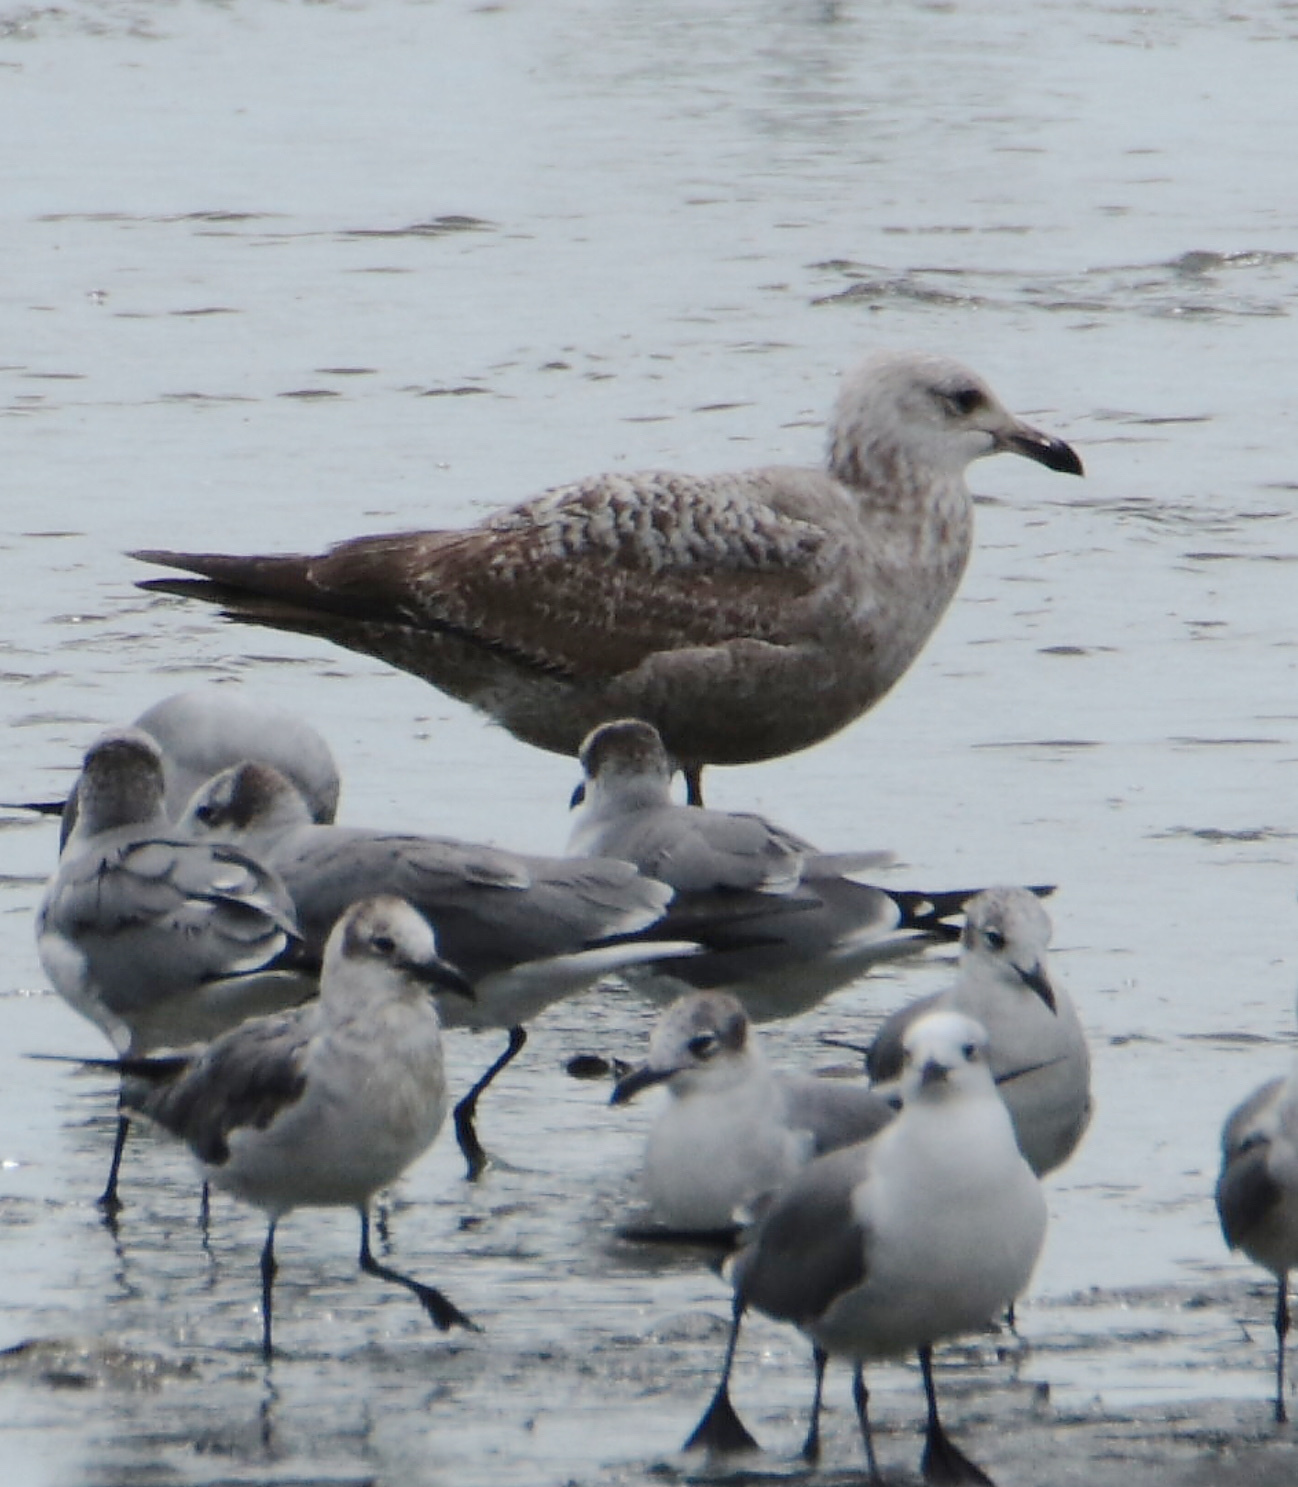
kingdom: Animalia
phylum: Chordata
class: Aves
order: Charadriiformes
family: Laridae
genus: Larus
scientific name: Larus argentatus
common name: Herring gull
